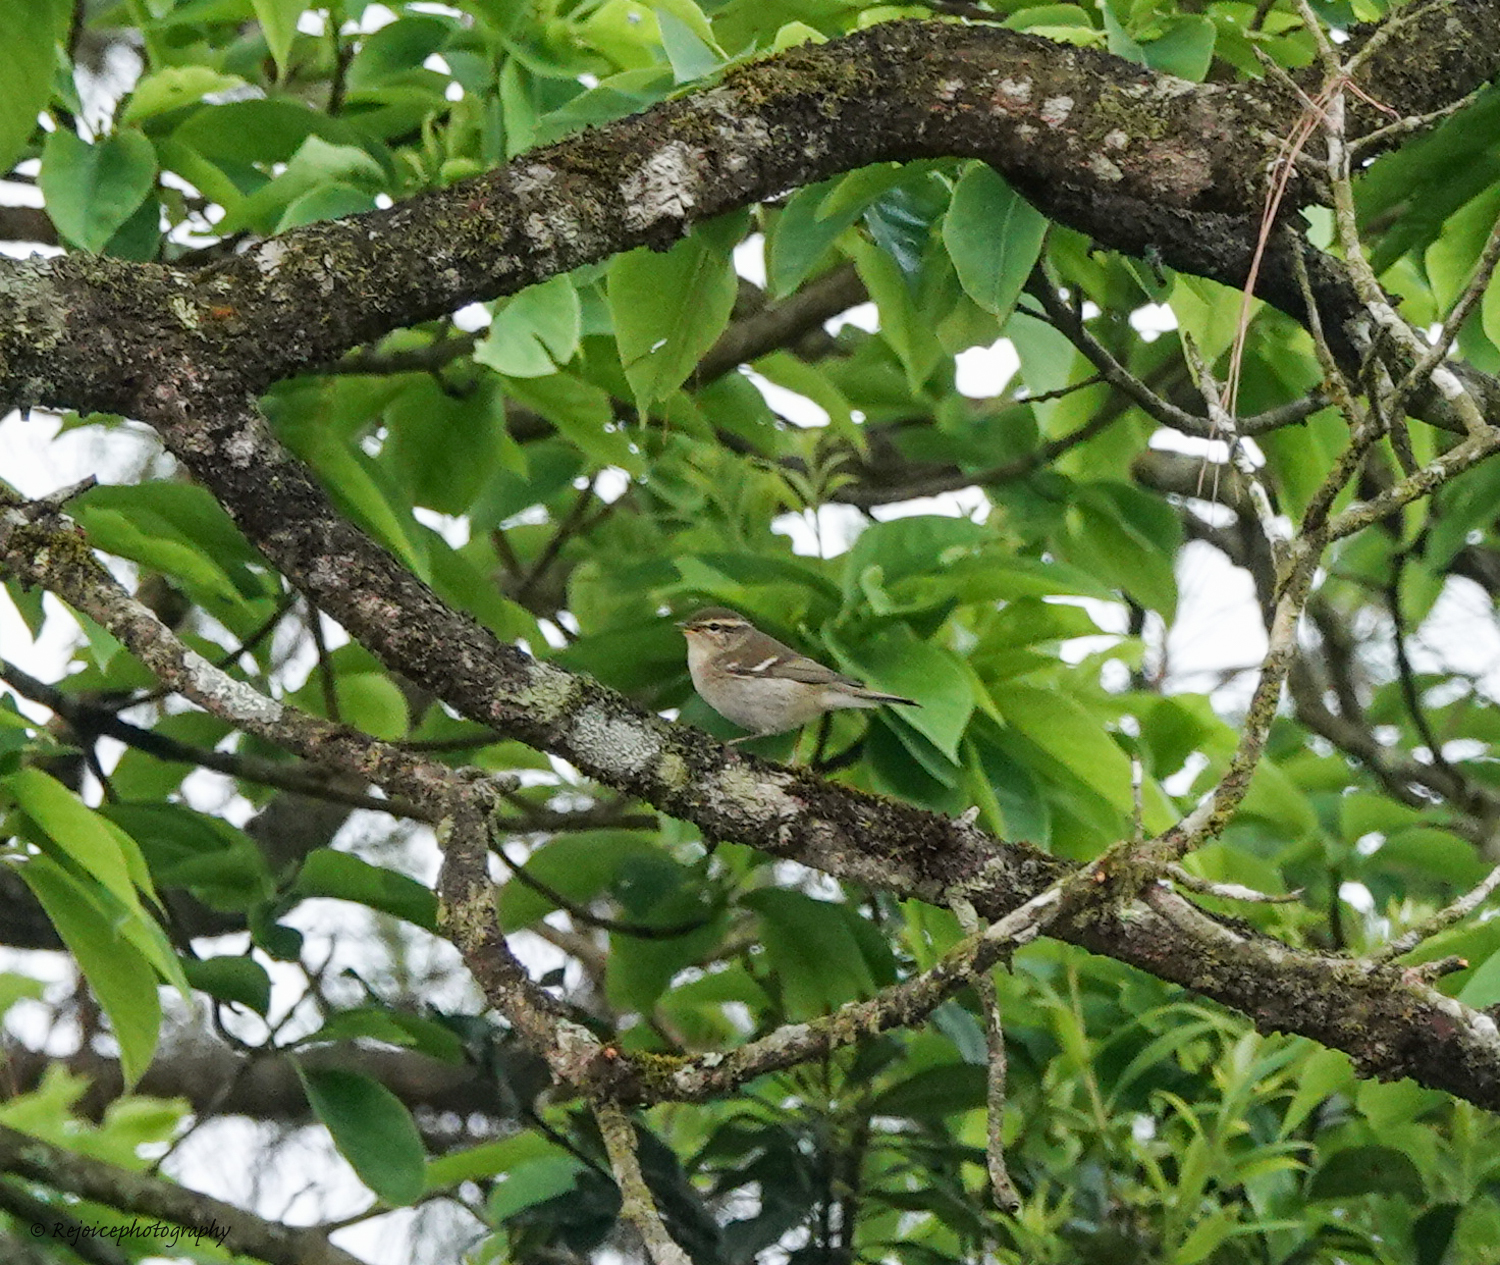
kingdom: Animalia
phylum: Chordata
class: Aves
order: Passeriformes
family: Phylloscopidae
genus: Phylloscopus
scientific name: Phylloscopus inornatus
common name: Yellow-browed warbler
